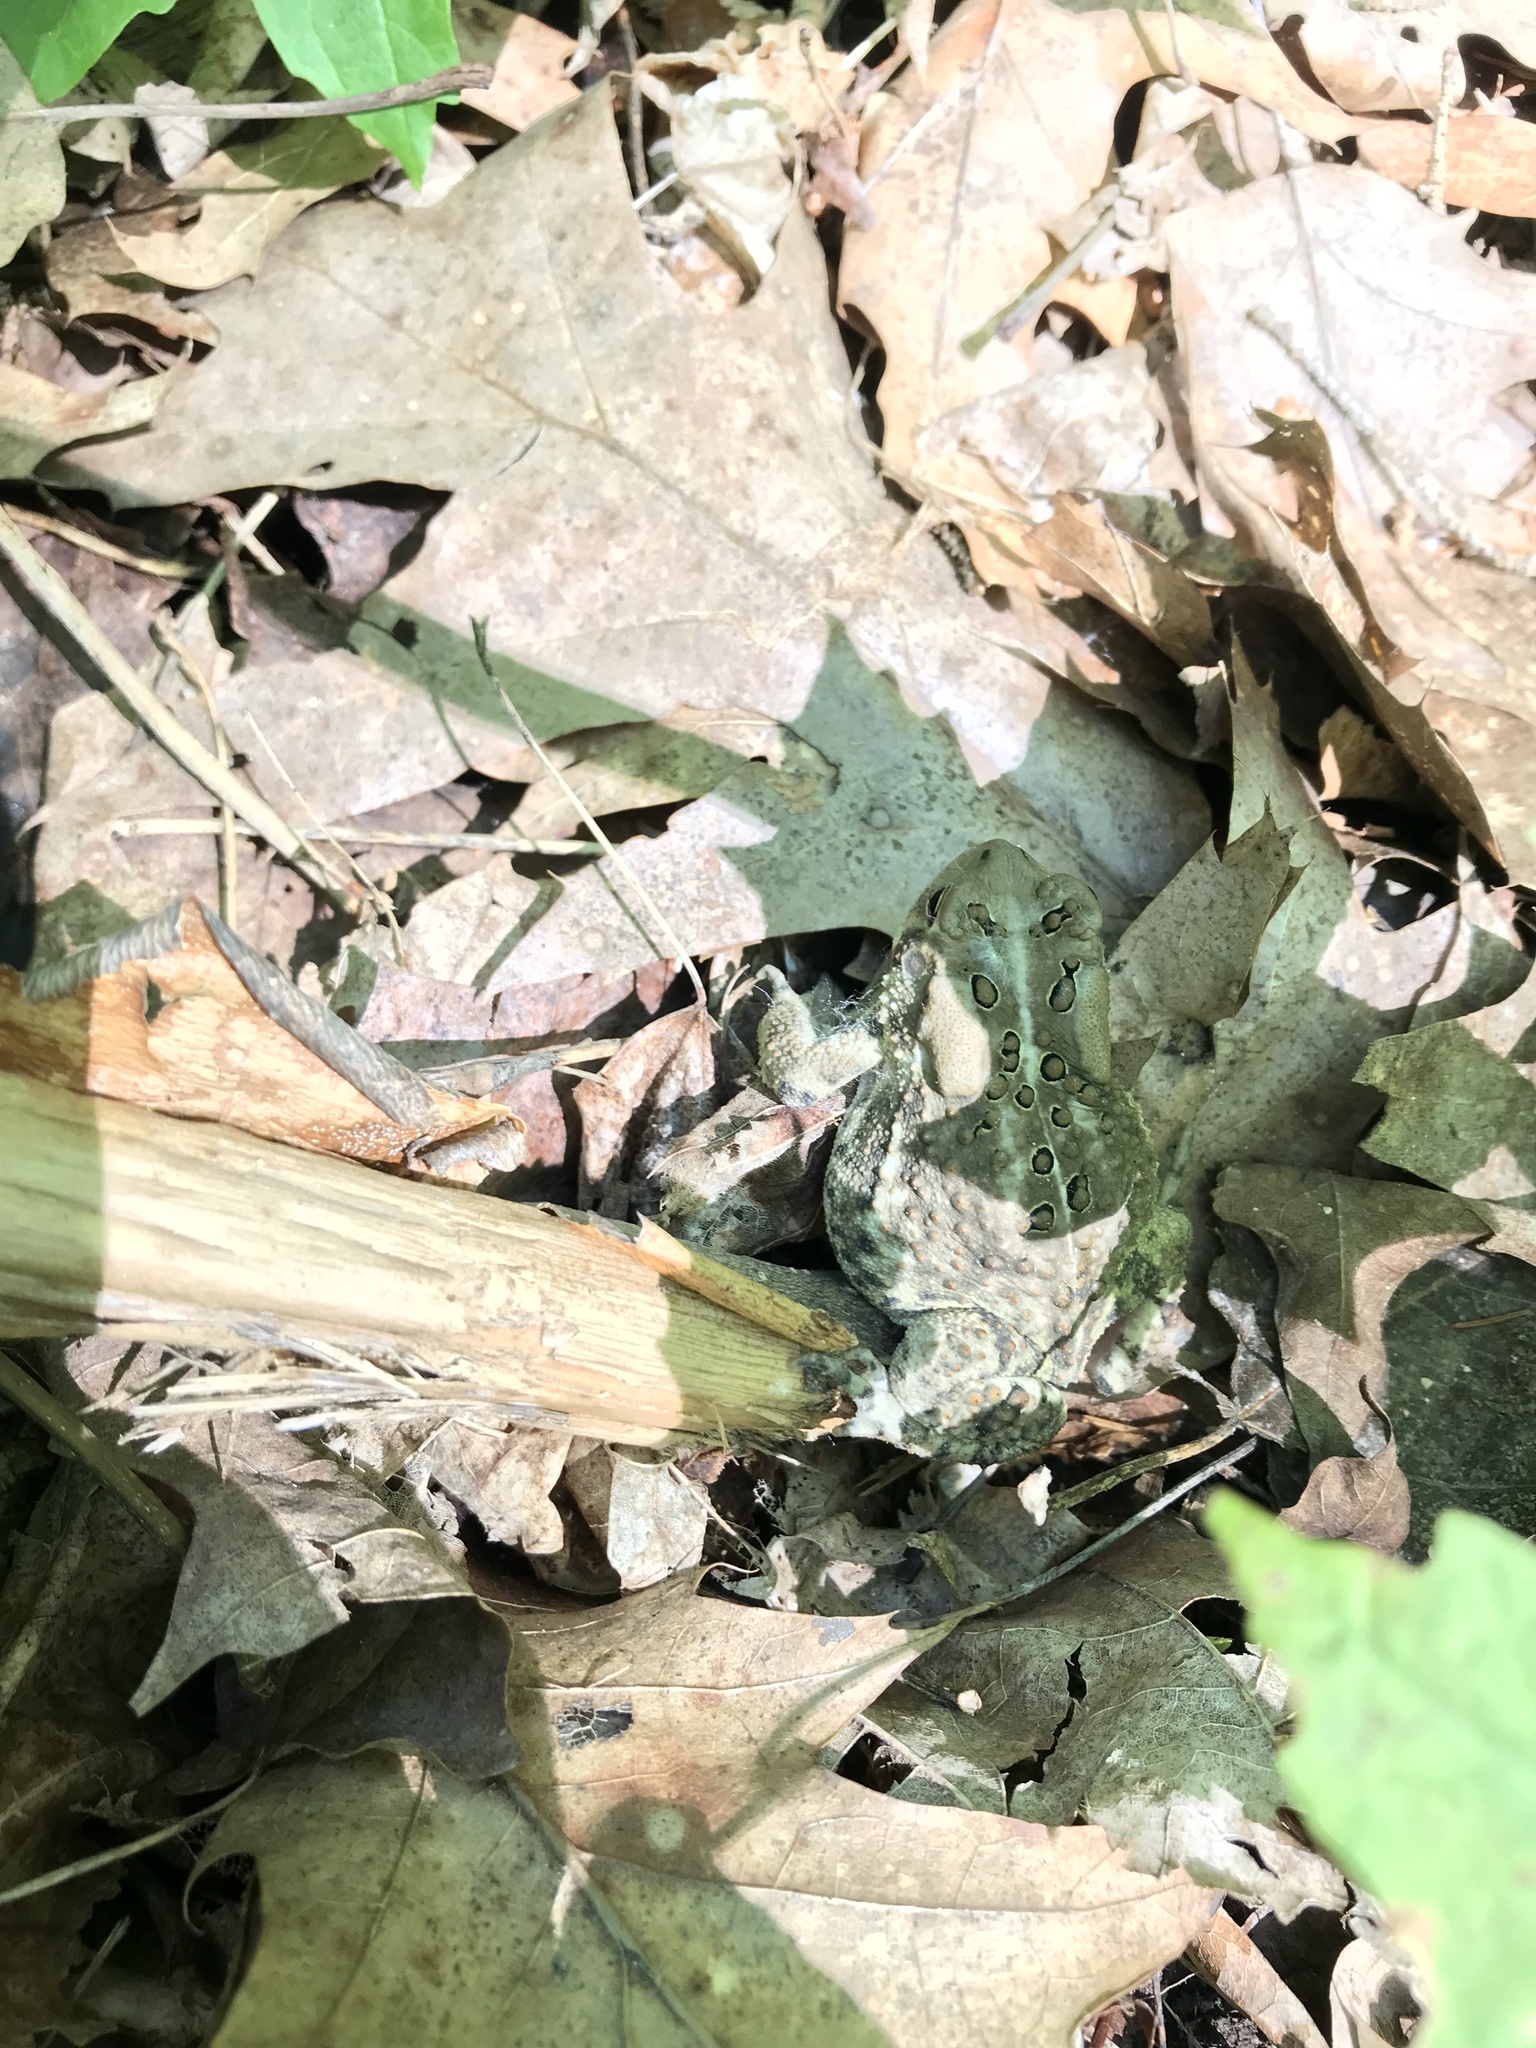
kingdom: Animalia
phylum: Chordata
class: Amphibia
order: Anura
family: Bufonidae
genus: Anaxyrus
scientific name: Anaxyrus americanus
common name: American toad
